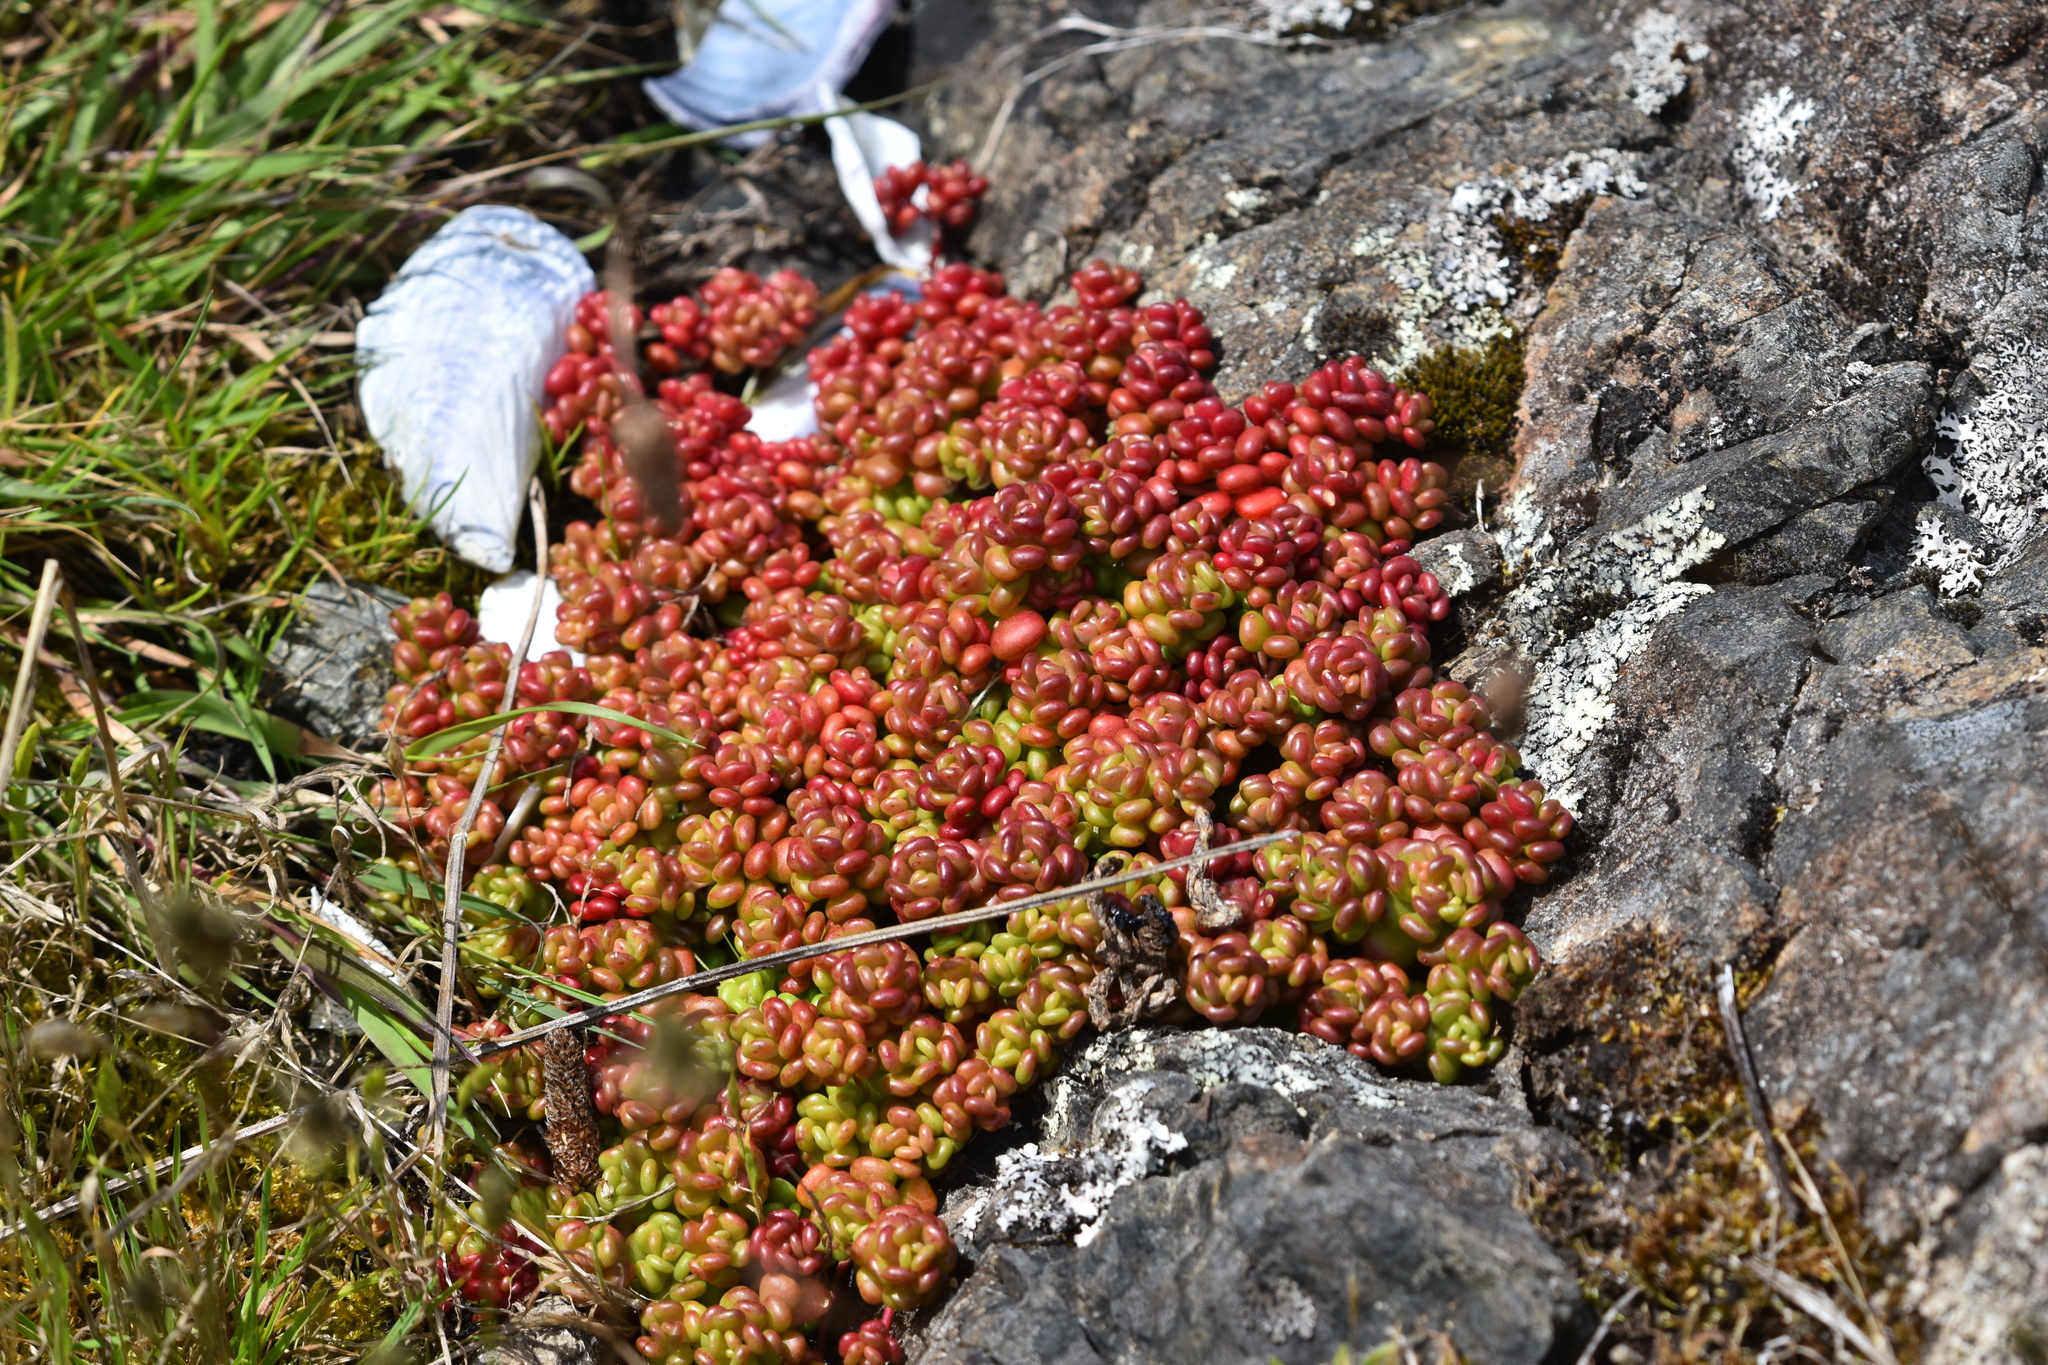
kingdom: Plantae
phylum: Tracheophyta
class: Magnoliopsida
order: Saxifragales
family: Crassulaceae
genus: Sedum
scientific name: Sedum oreganum
